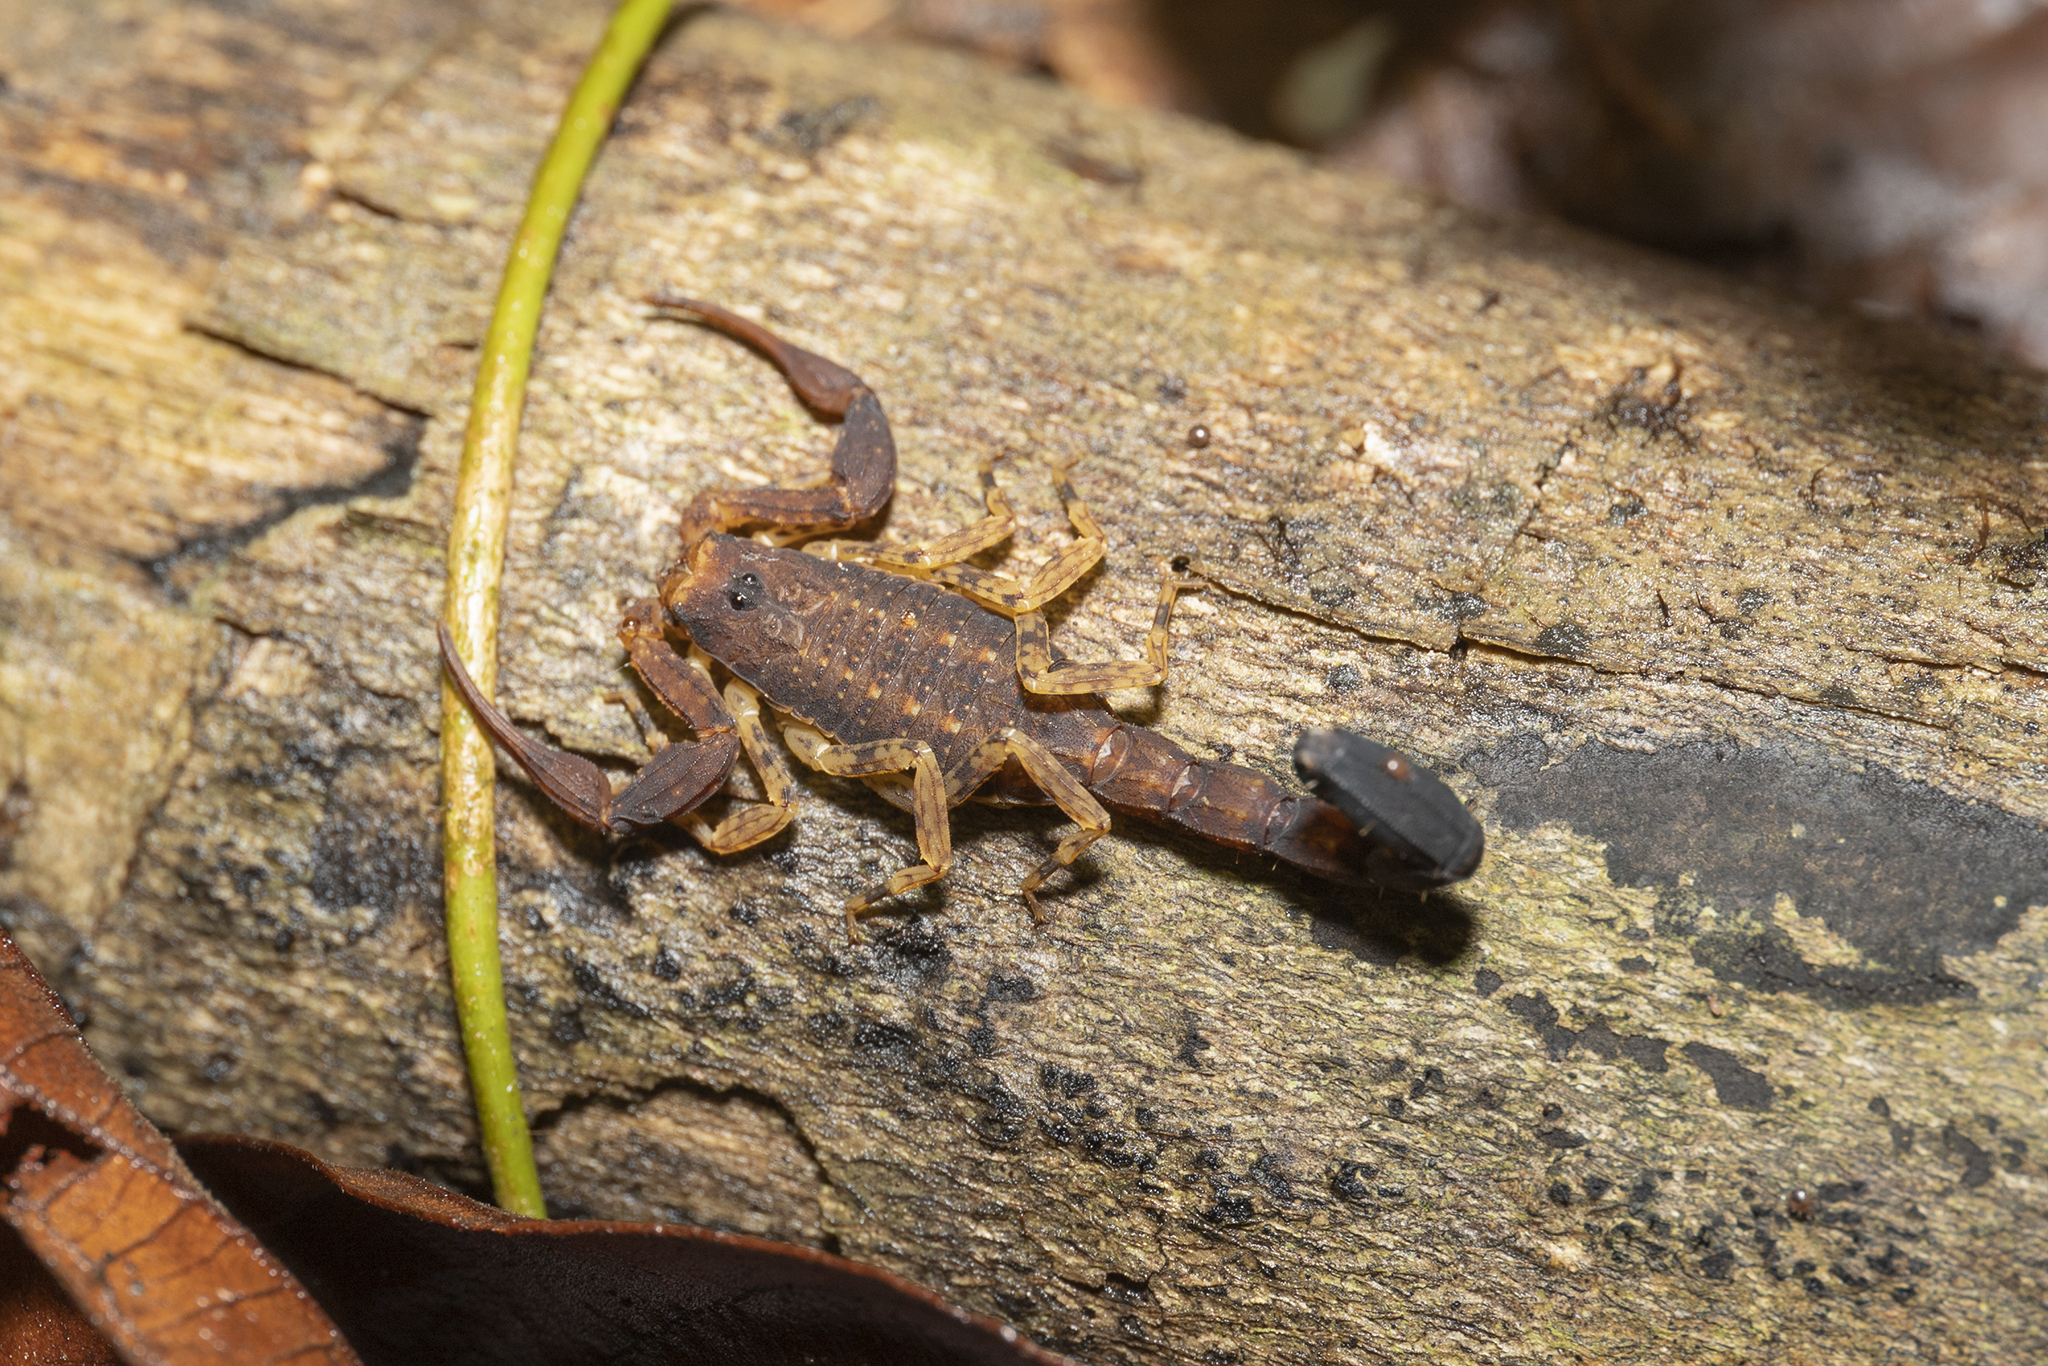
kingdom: Animalia
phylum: Arthropoda
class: Arachnida
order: Scorpiones
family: Buthidae
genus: Tityus
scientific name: Tityus bastosi
